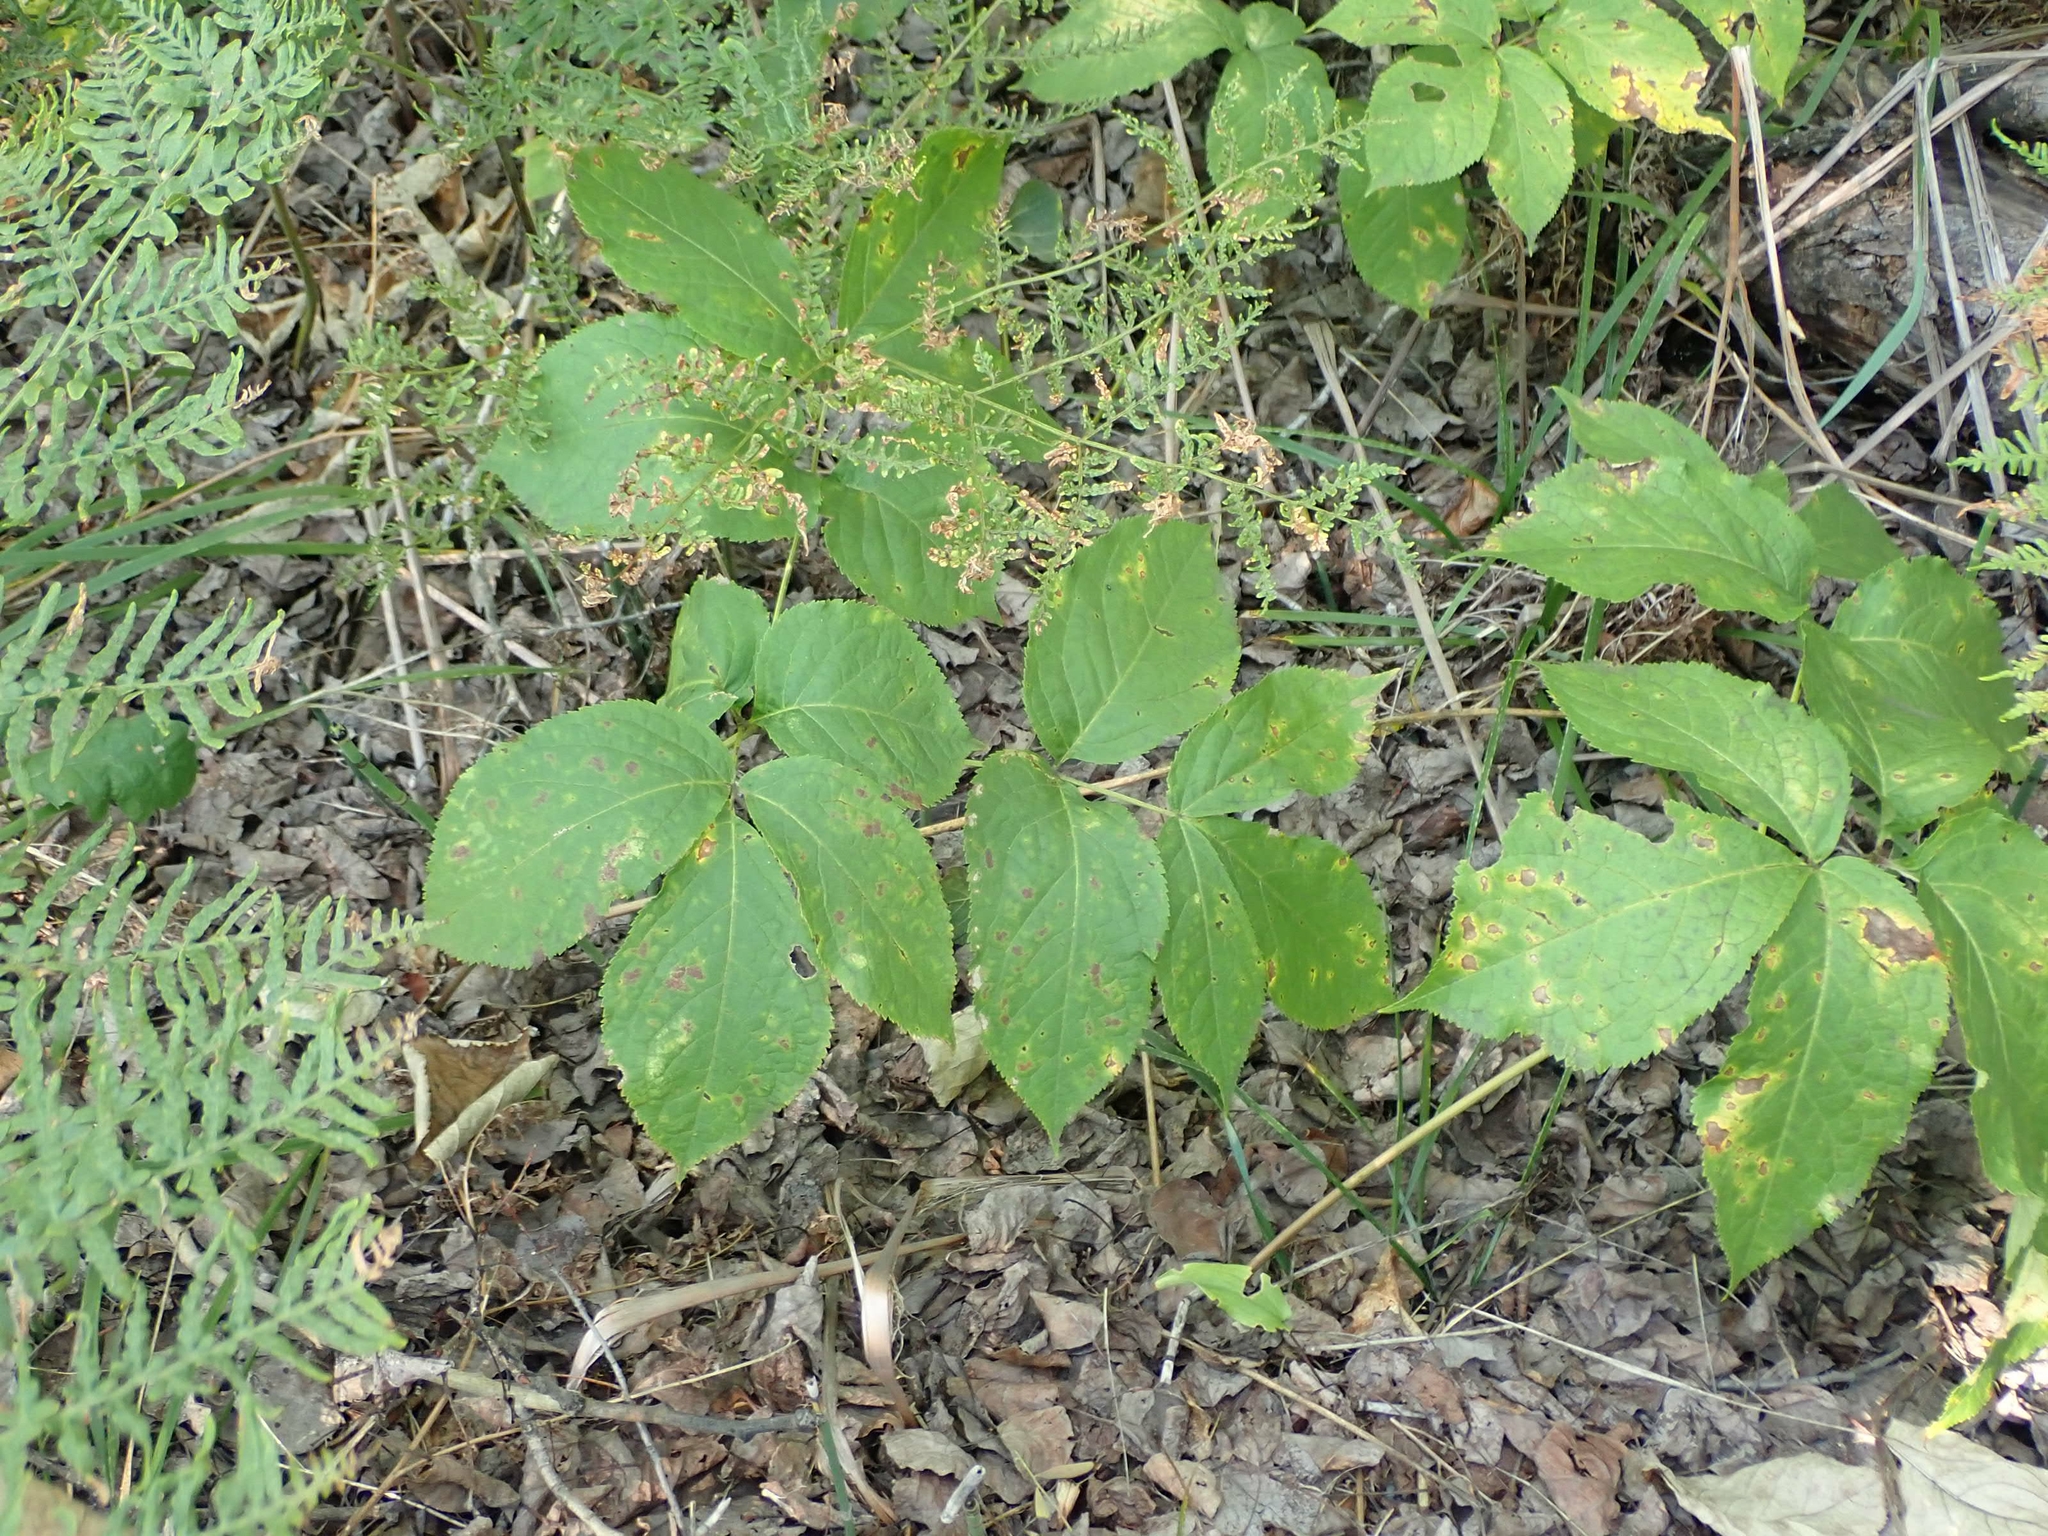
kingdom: Plantae
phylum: Tracheophyta
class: Magnoliopsida
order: Apiales
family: Araliaceae
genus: Aralia
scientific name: Aralia nudicaulis
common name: Wild sarsaparilla
